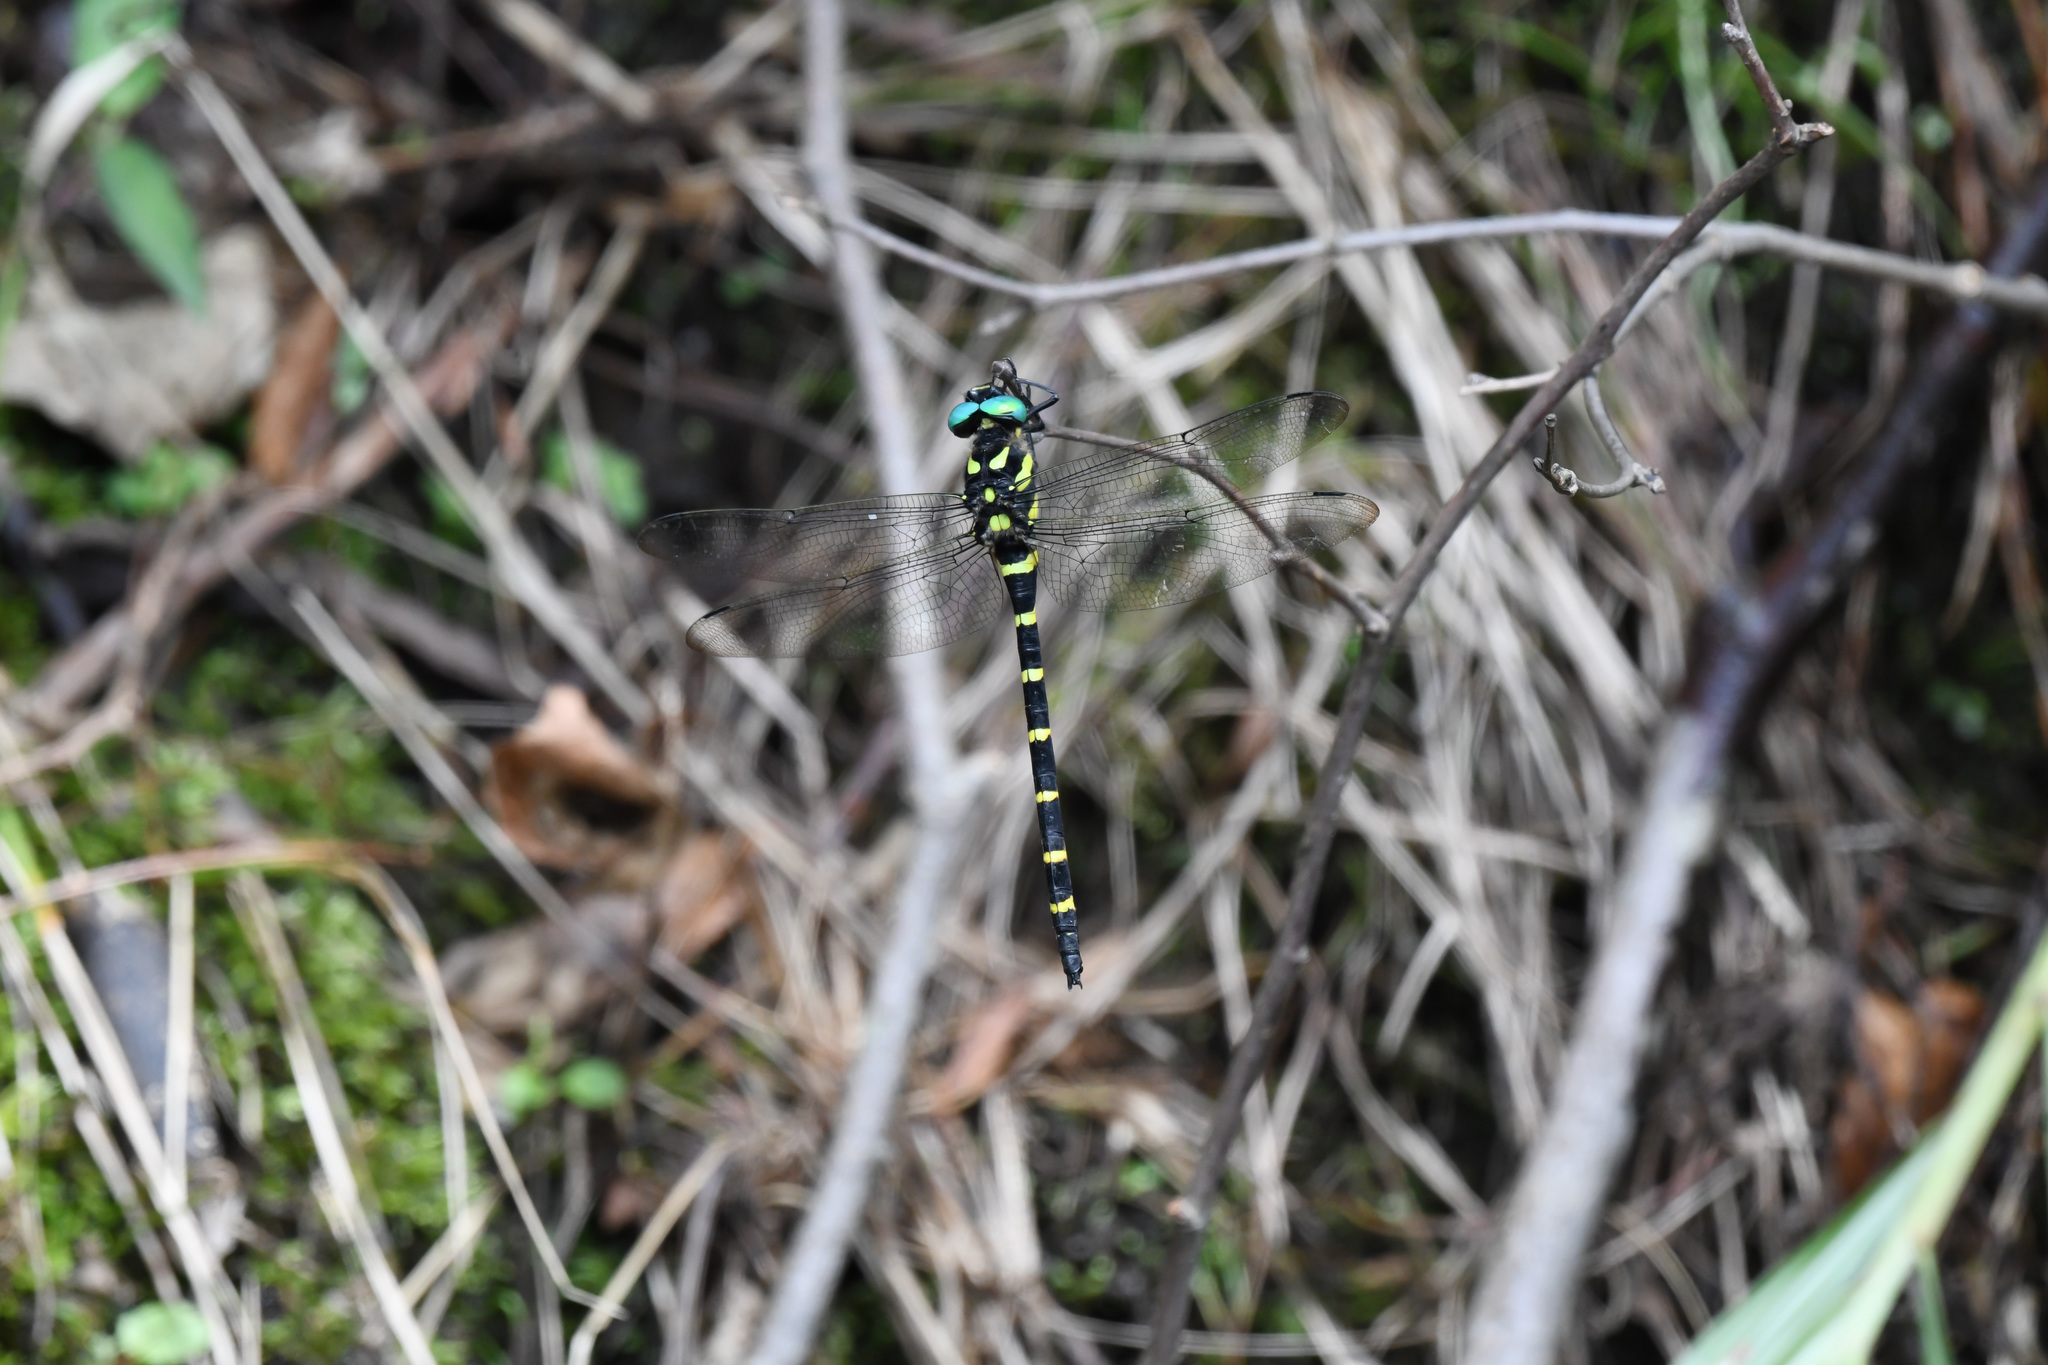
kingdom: Animalia
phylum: Arthropoda
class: Insecta
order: Odonata
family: Cordulegastridae
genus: Anotogaster
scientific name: Anotogaster sieboldii
